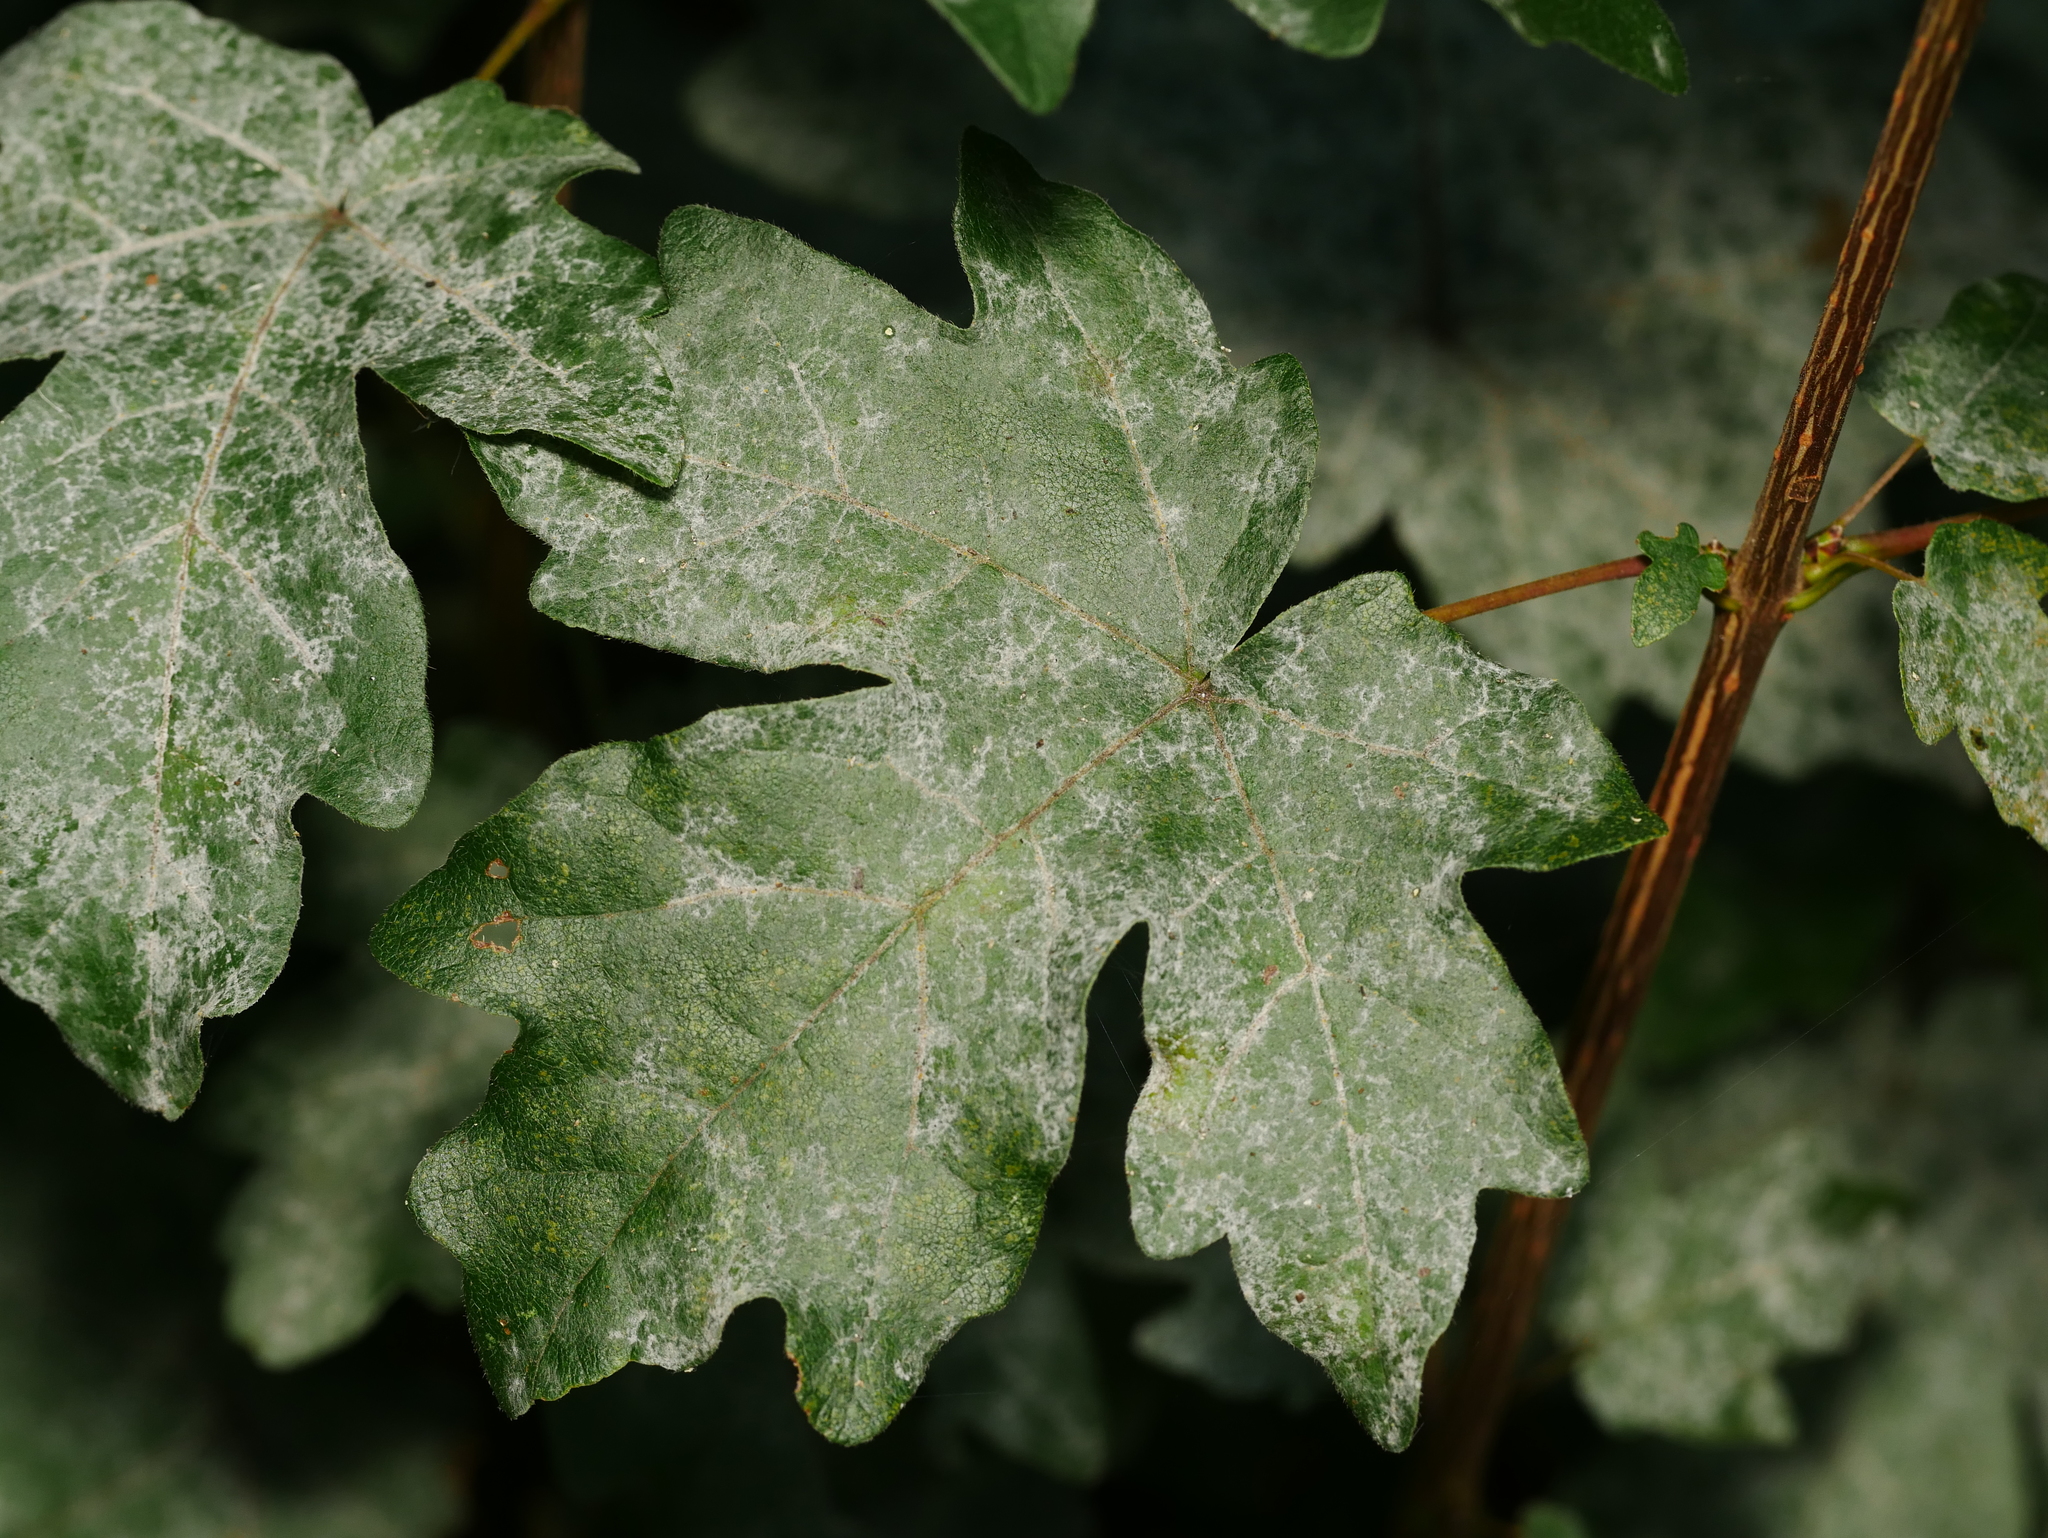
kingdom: Fungi
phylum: Ascomycota
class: Leotiomycetes
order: Helotiales
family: Erysiphaceae
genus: Sawadaea
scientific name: Sawadaea bicornis
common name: Maple mildew
